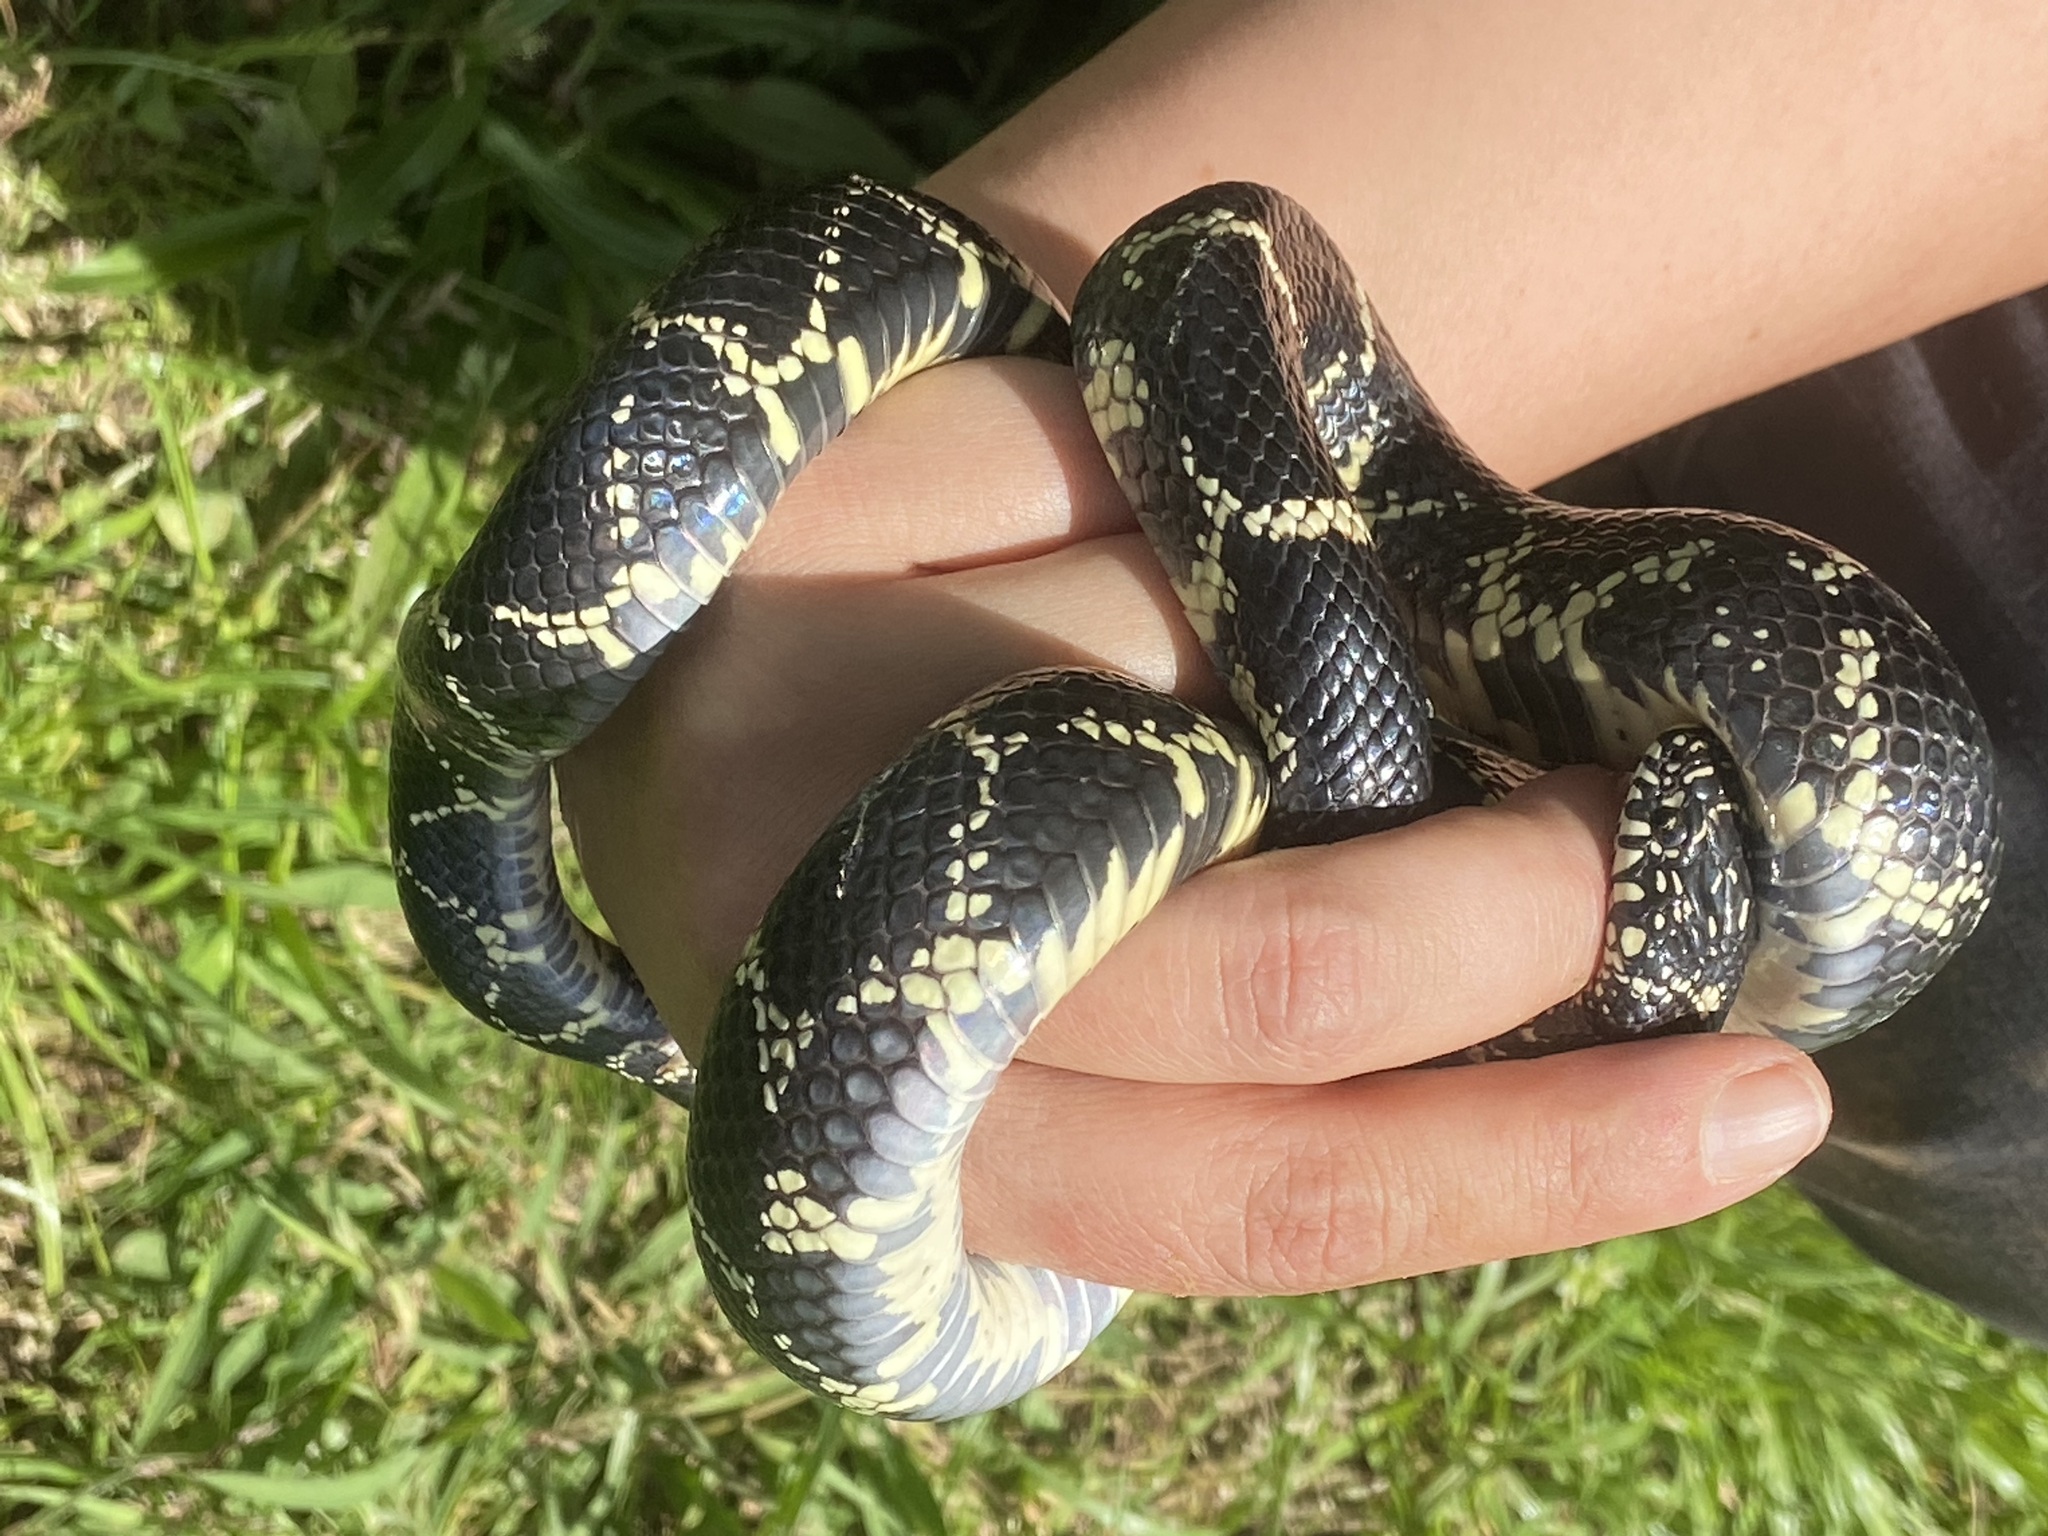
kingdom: Animalia
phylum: Chordata
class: Squamata
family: Colubridae
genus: Lampropeltis
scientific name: Lampropeltis getula
